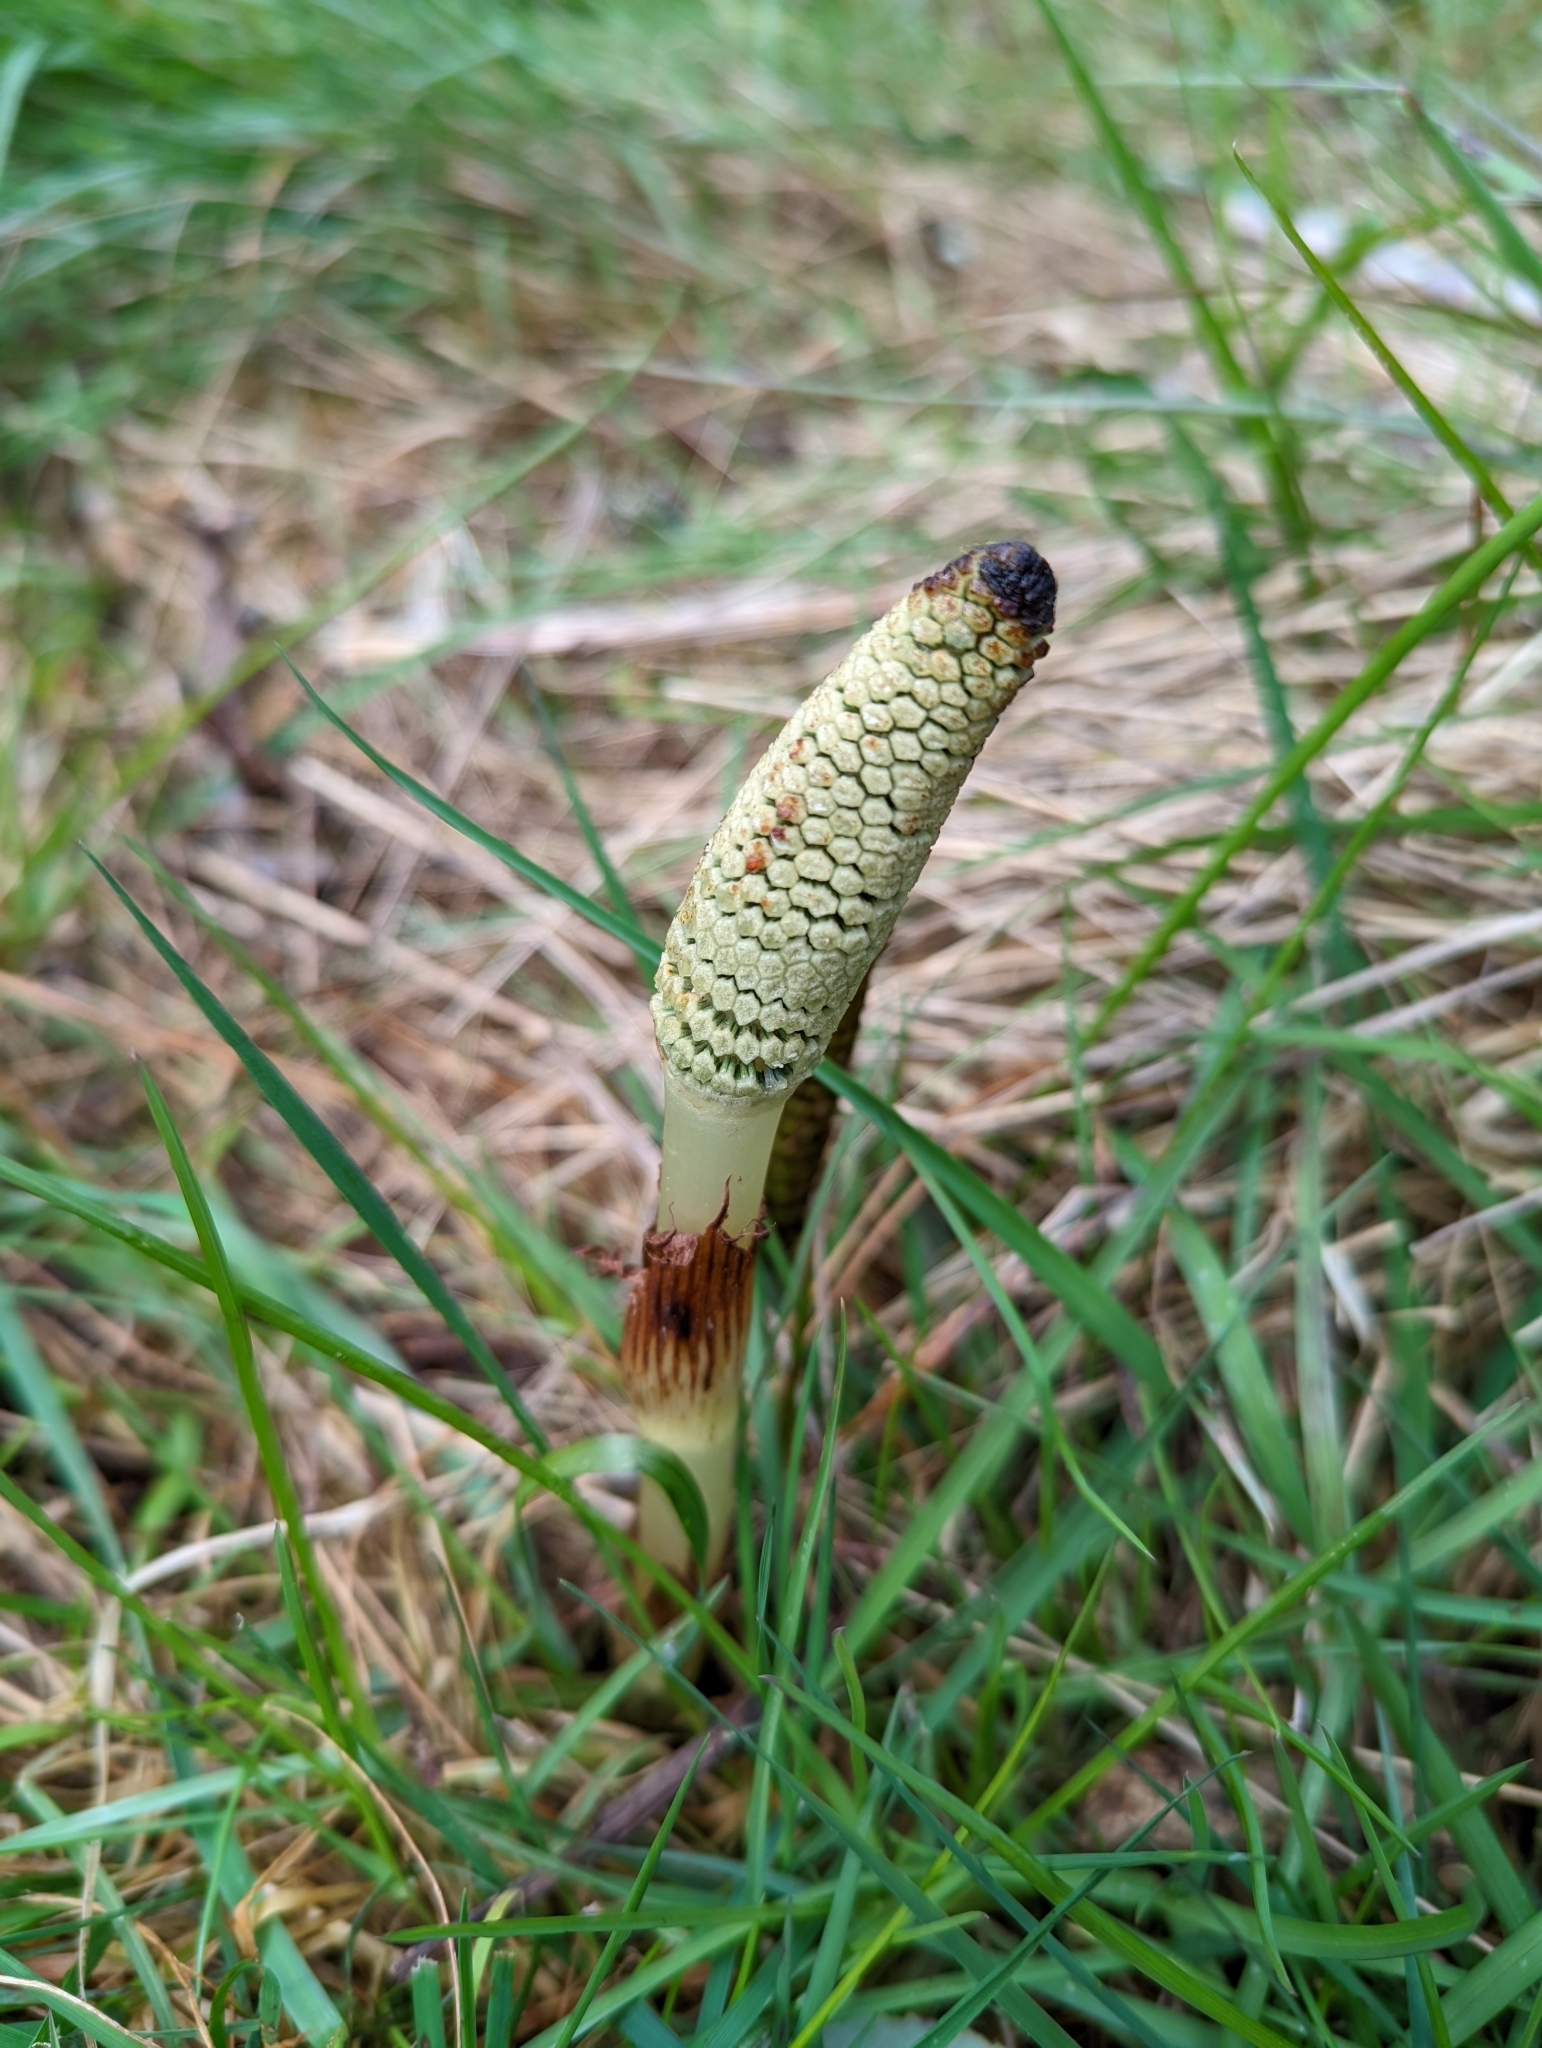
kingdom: Plantae
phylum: Tracheophyta
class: Polypodiopsida
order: Equisetales
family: Equisetaceae
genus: Equisetum
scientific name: Equisetum braunii
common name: Braun's horsetail
